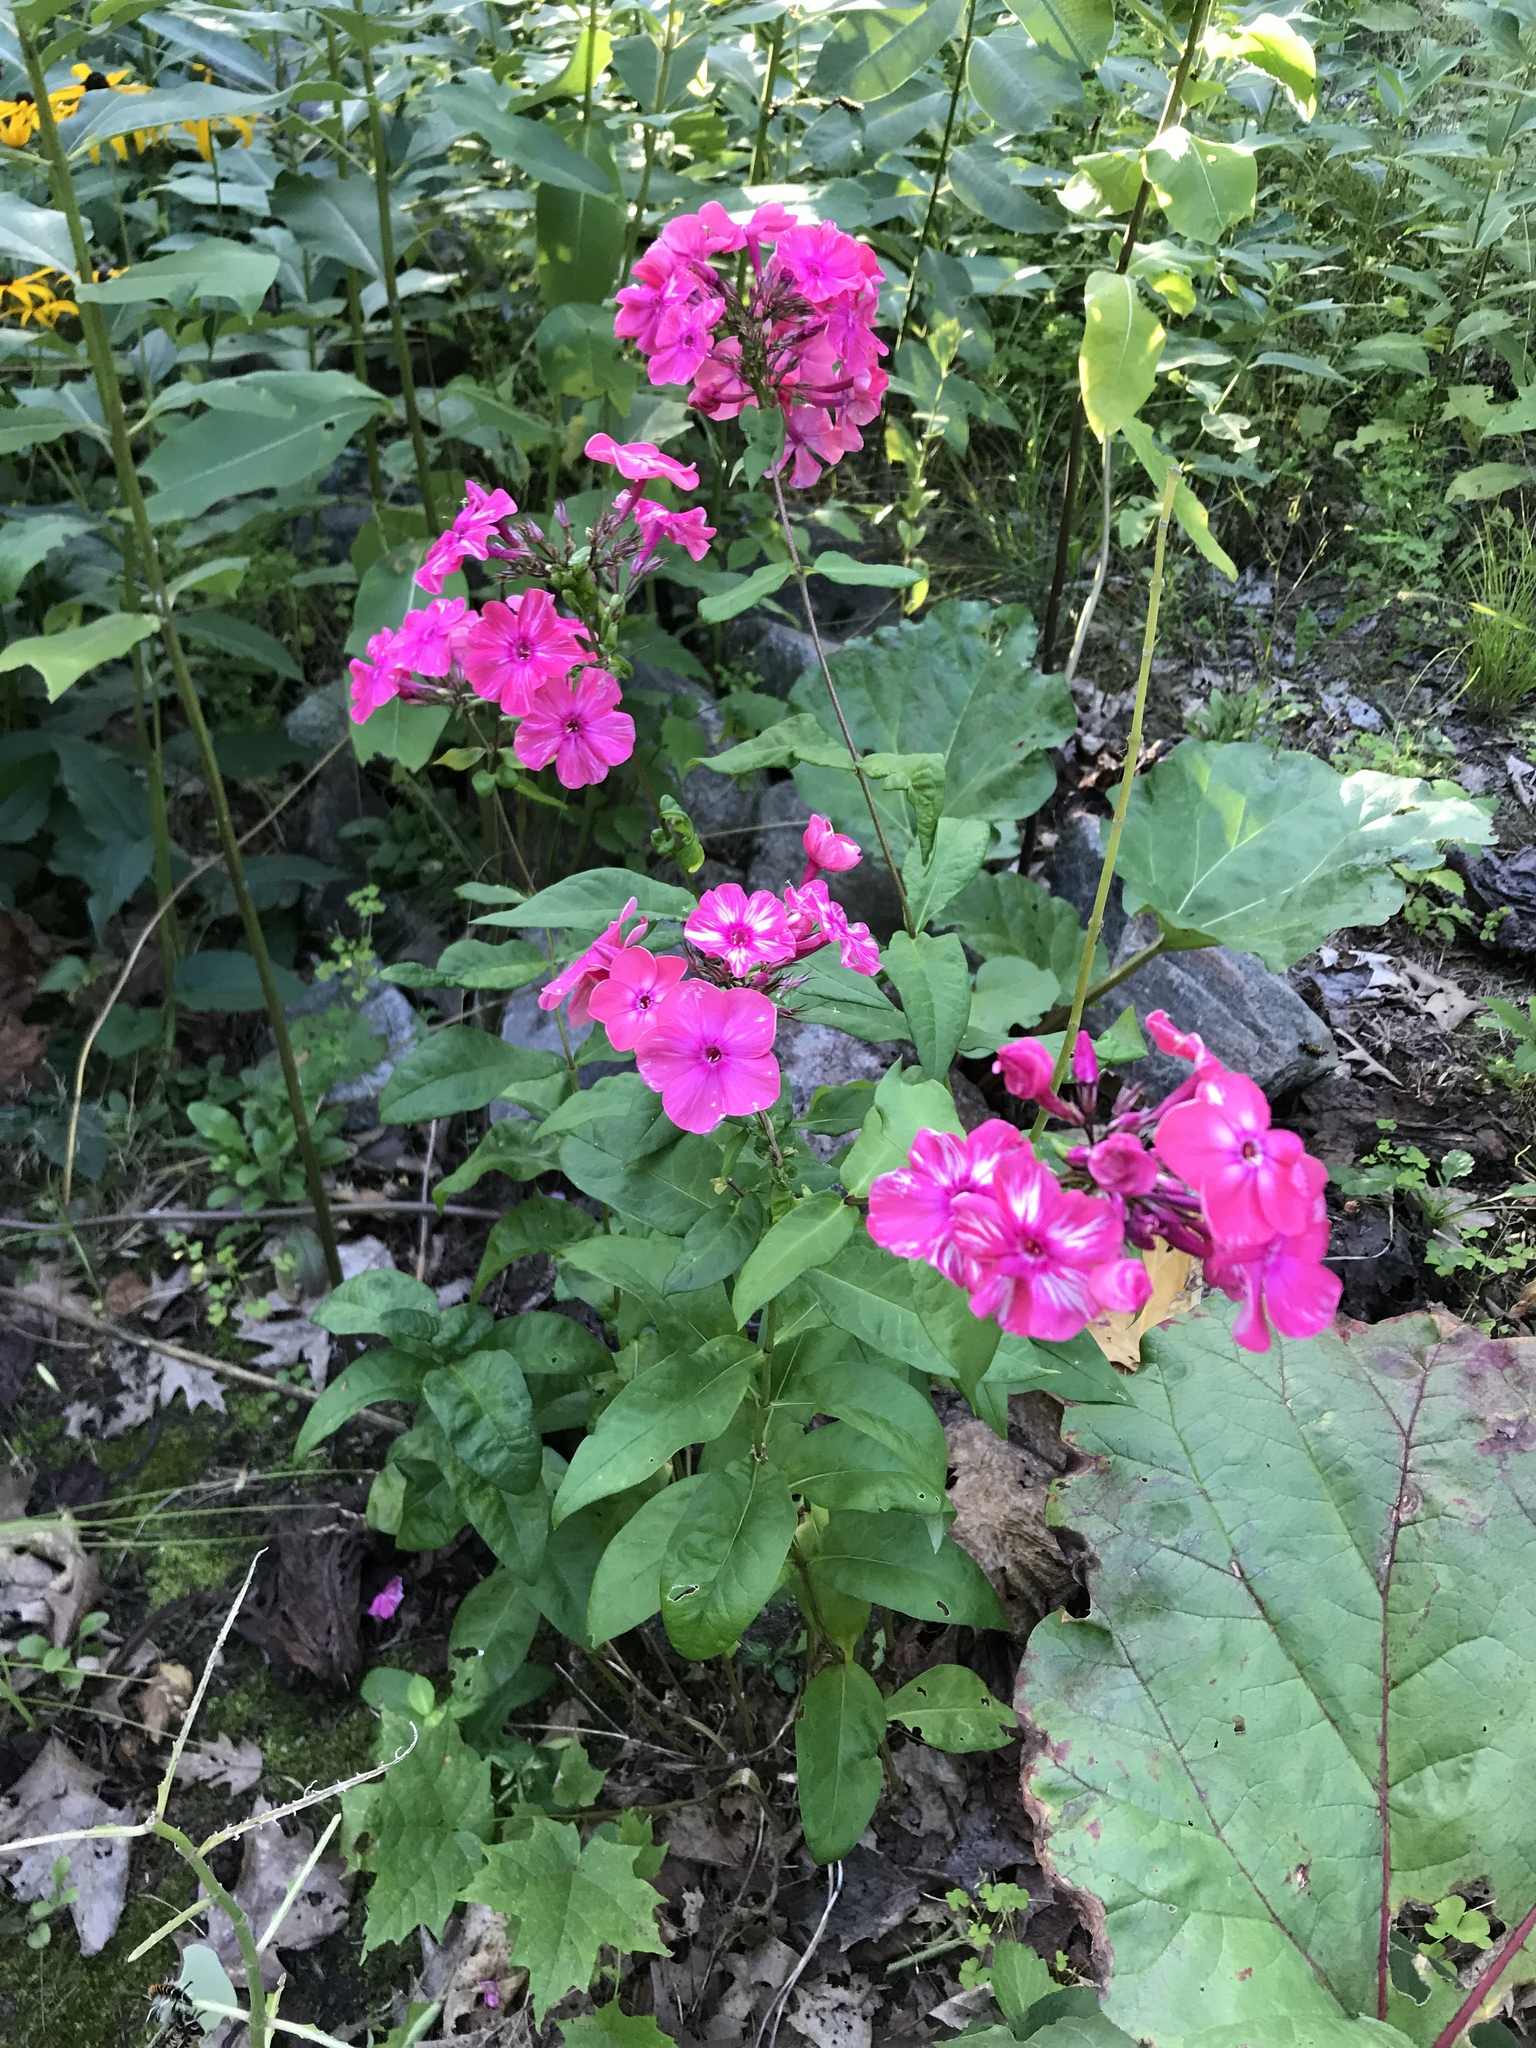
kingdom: Plantae
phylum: Tracheophyta
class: Magnoliopsida
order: Ericales
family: Polemoniaceae
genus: Phlox
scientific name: Phlox paniculata
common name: Fall phlox
